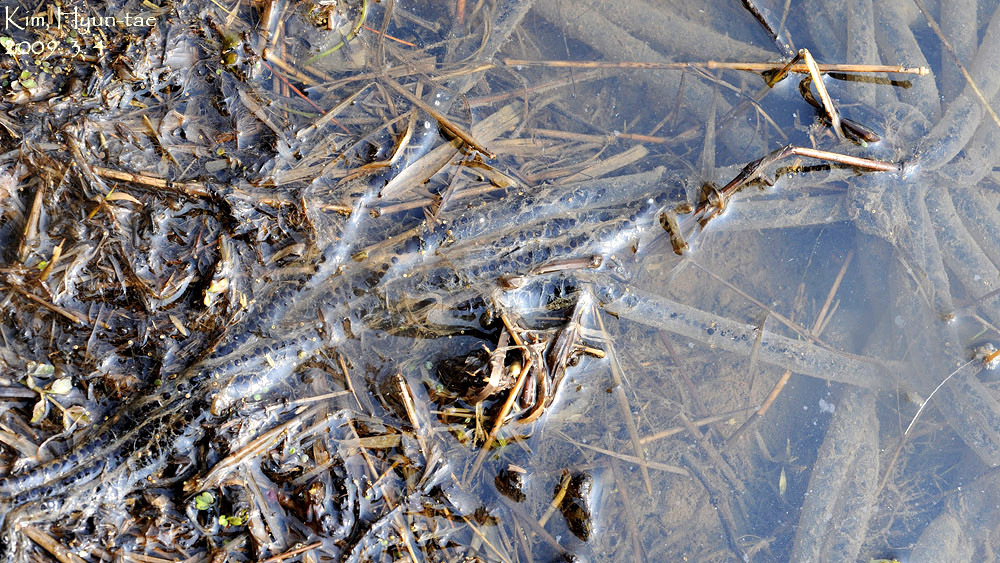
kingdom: Animalia
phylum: Chordata
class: Amphibia
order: Anura
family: Bufonidae
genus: Bufo
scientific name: Bufo gargarizans
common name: Asiatic toad
